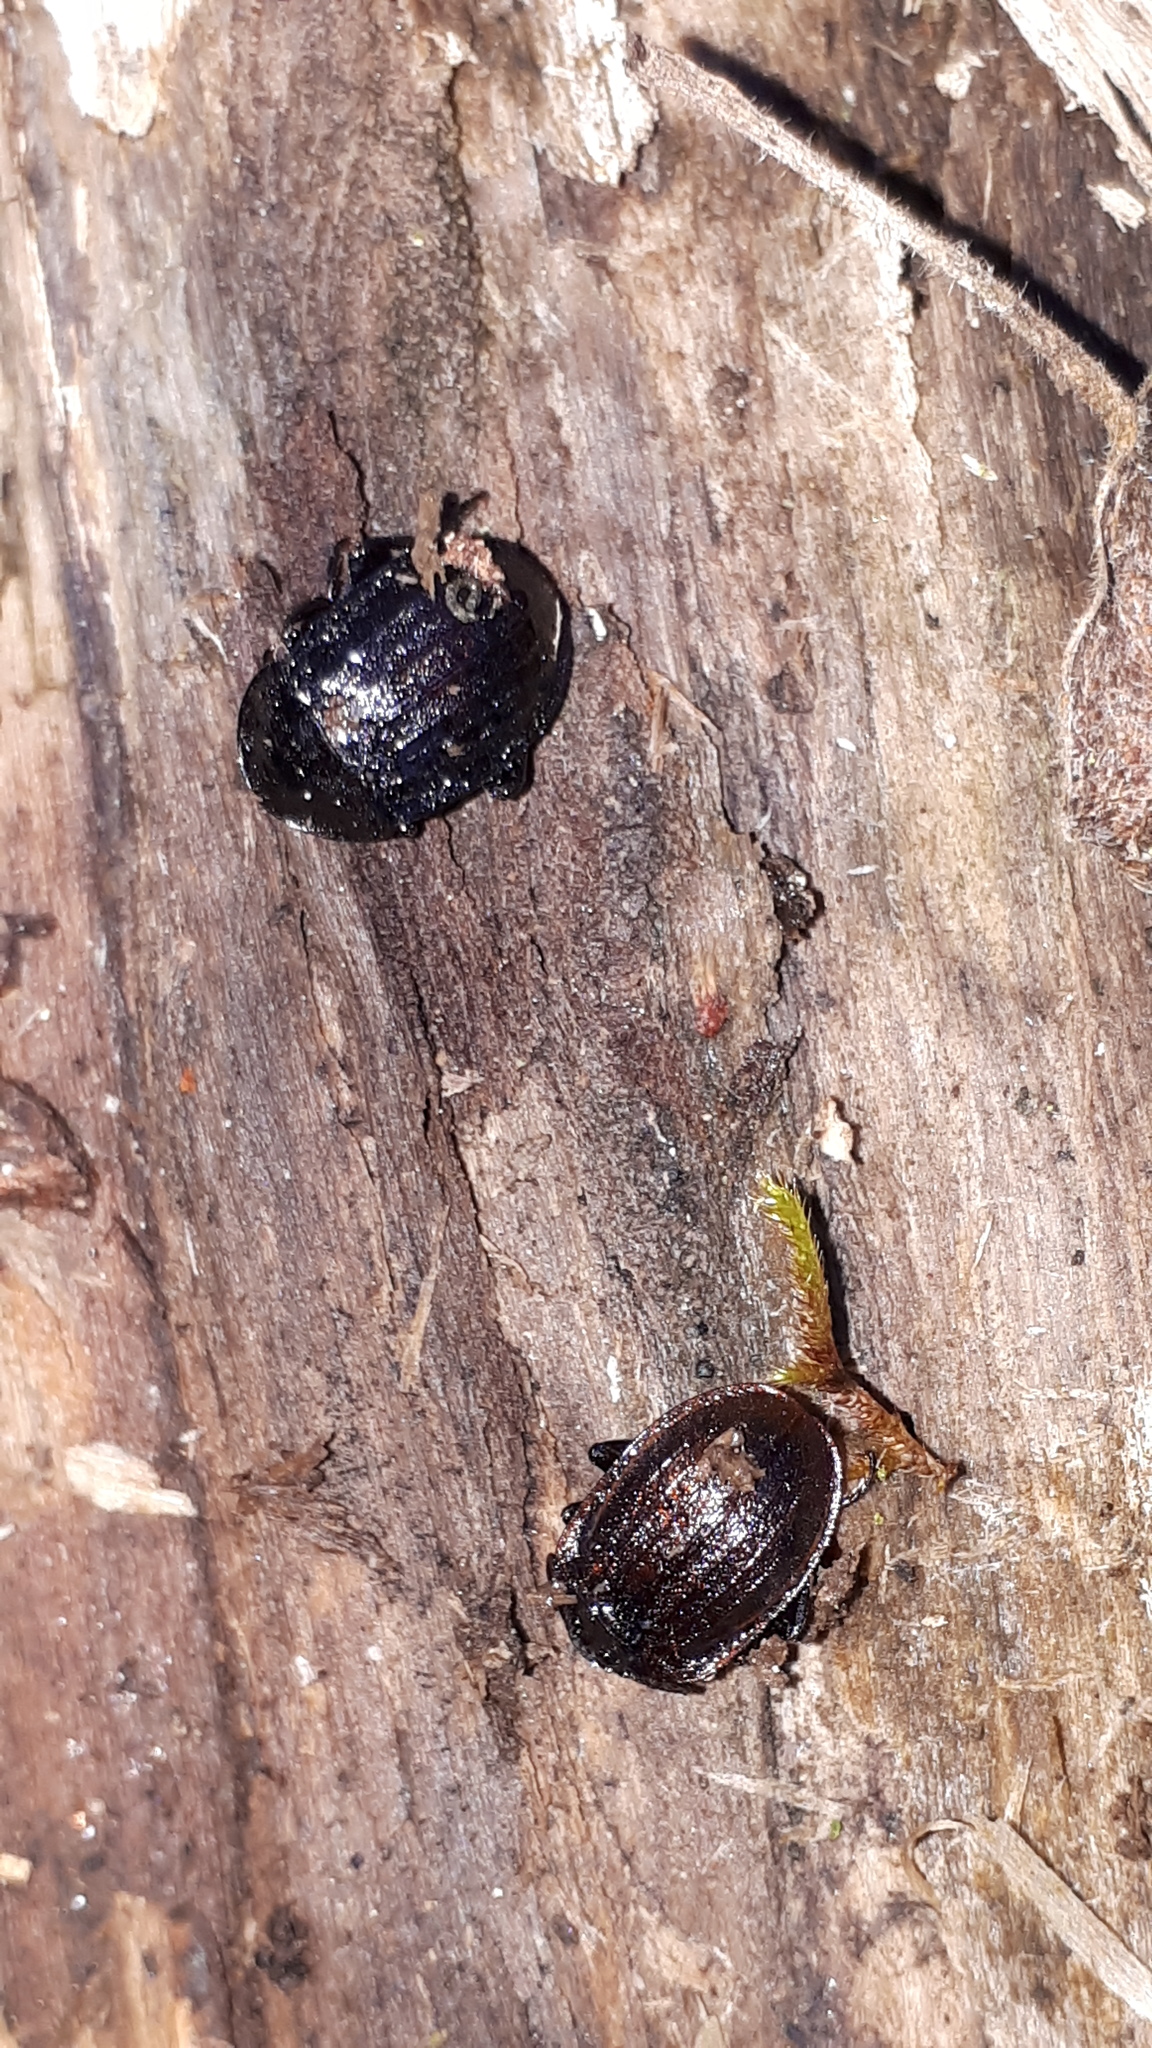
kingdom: Animalia
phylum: Arthropoda
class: Insecta
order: Coleoptera
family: Staphylinidae
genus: Silpha
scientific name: Silpha atrata
